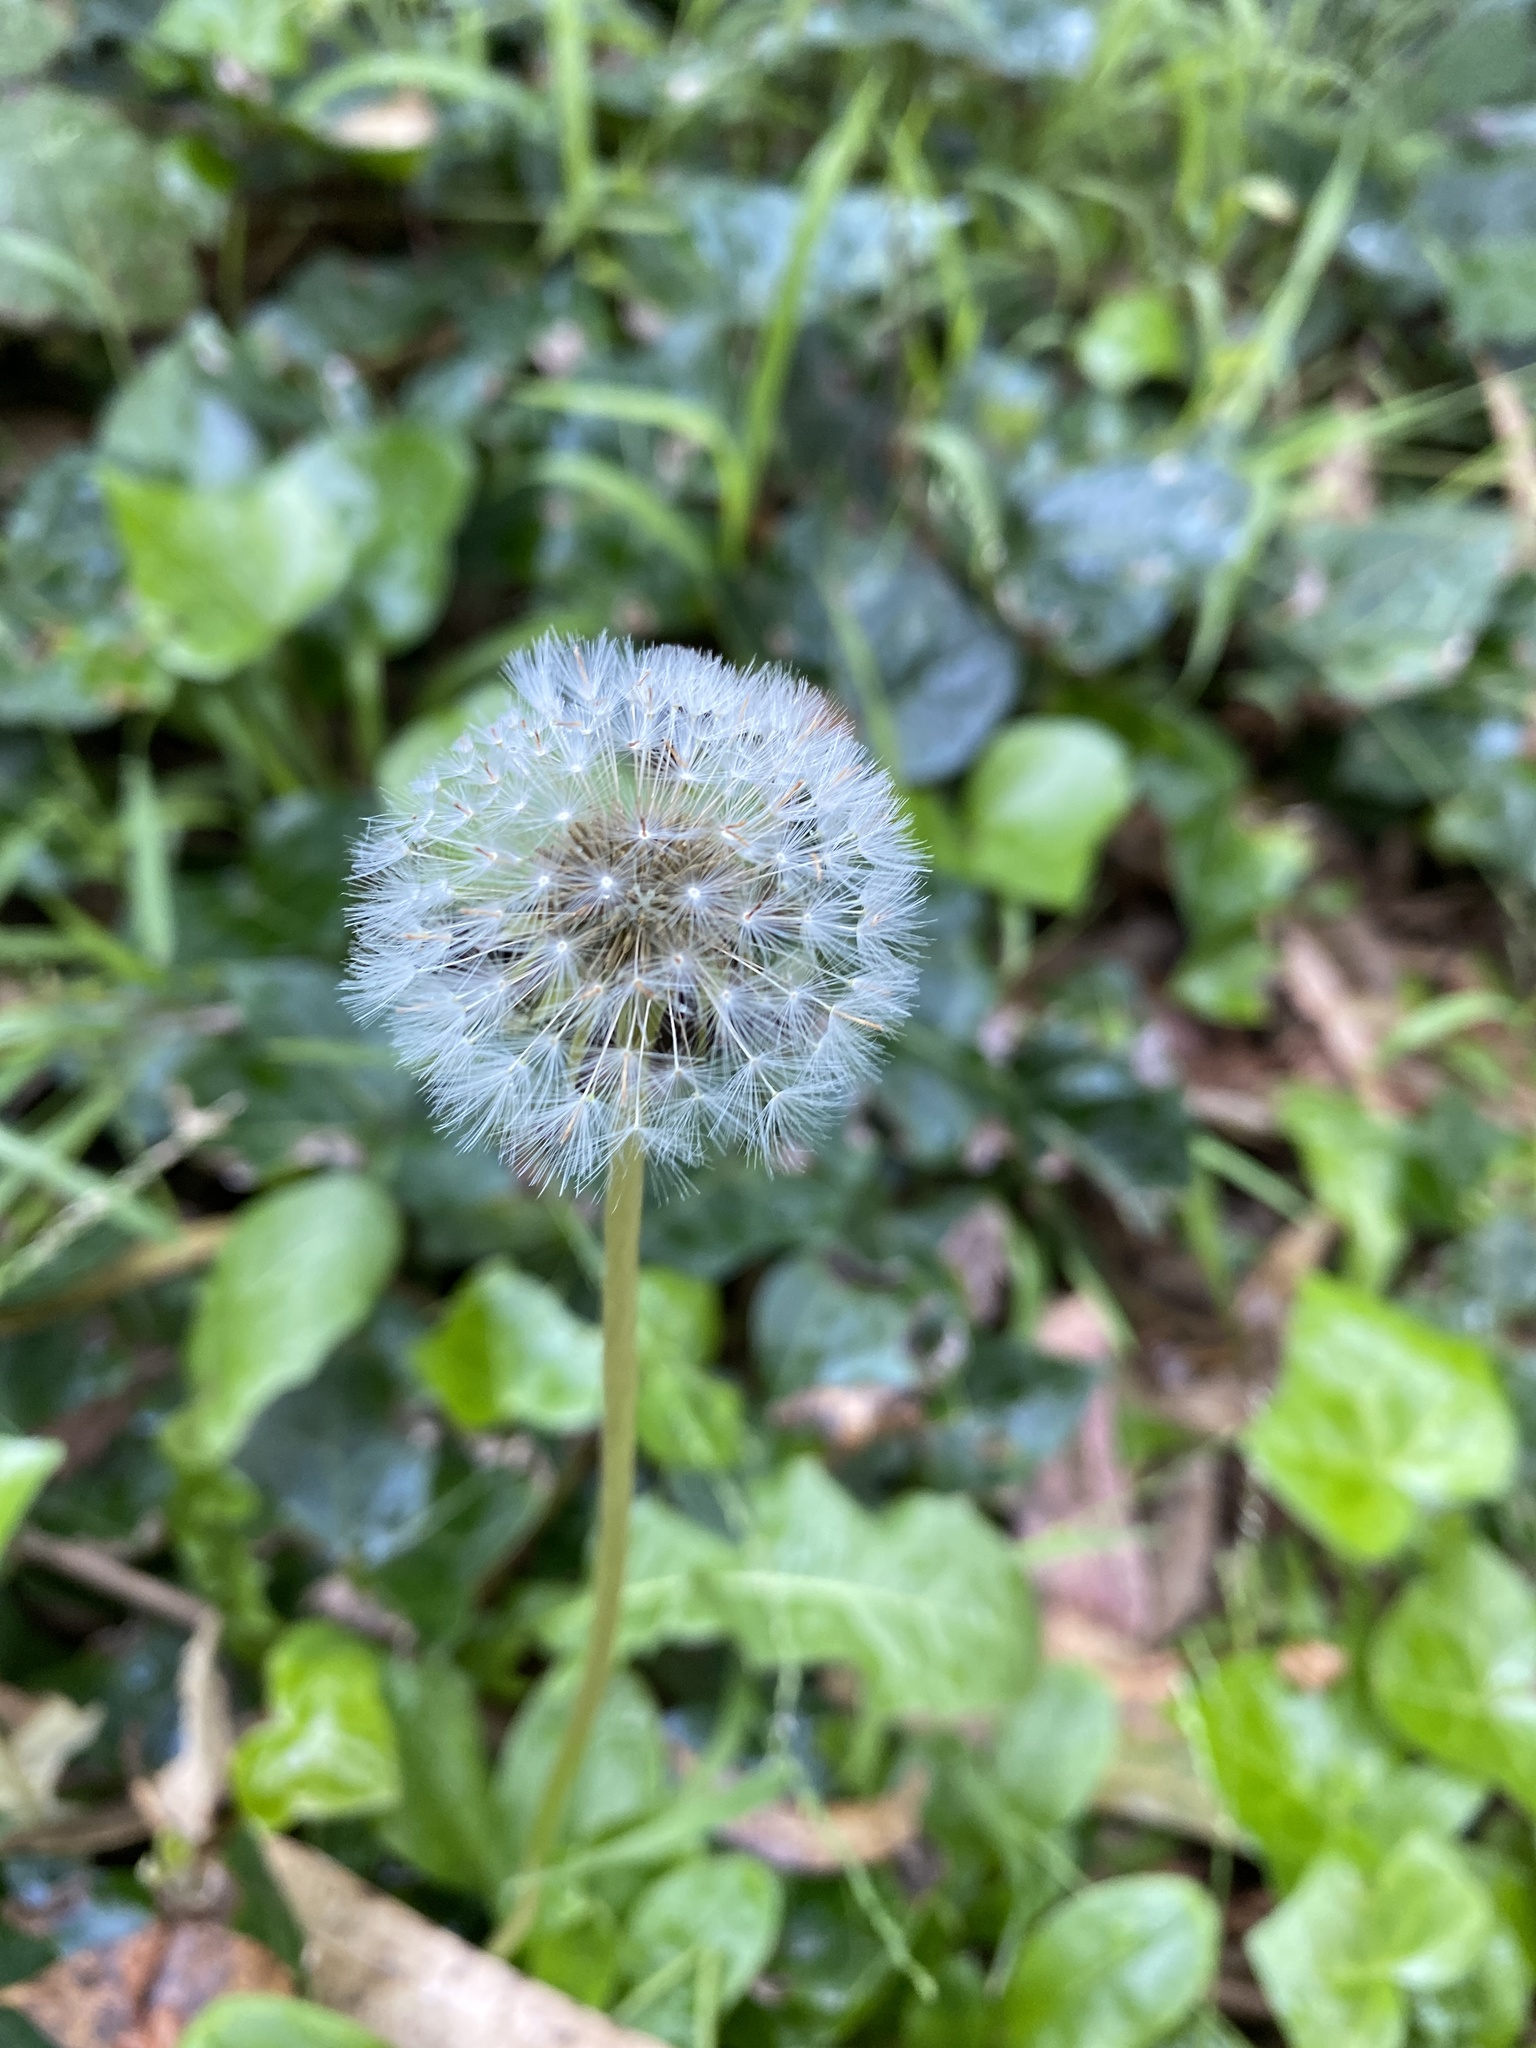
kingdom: Plantae
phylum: Tracheophyta
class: Magnoliopsida
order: Asterales
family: Asteraceae
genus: Taraxacum
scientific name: Taraxacum officinale
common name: Common dandelion
